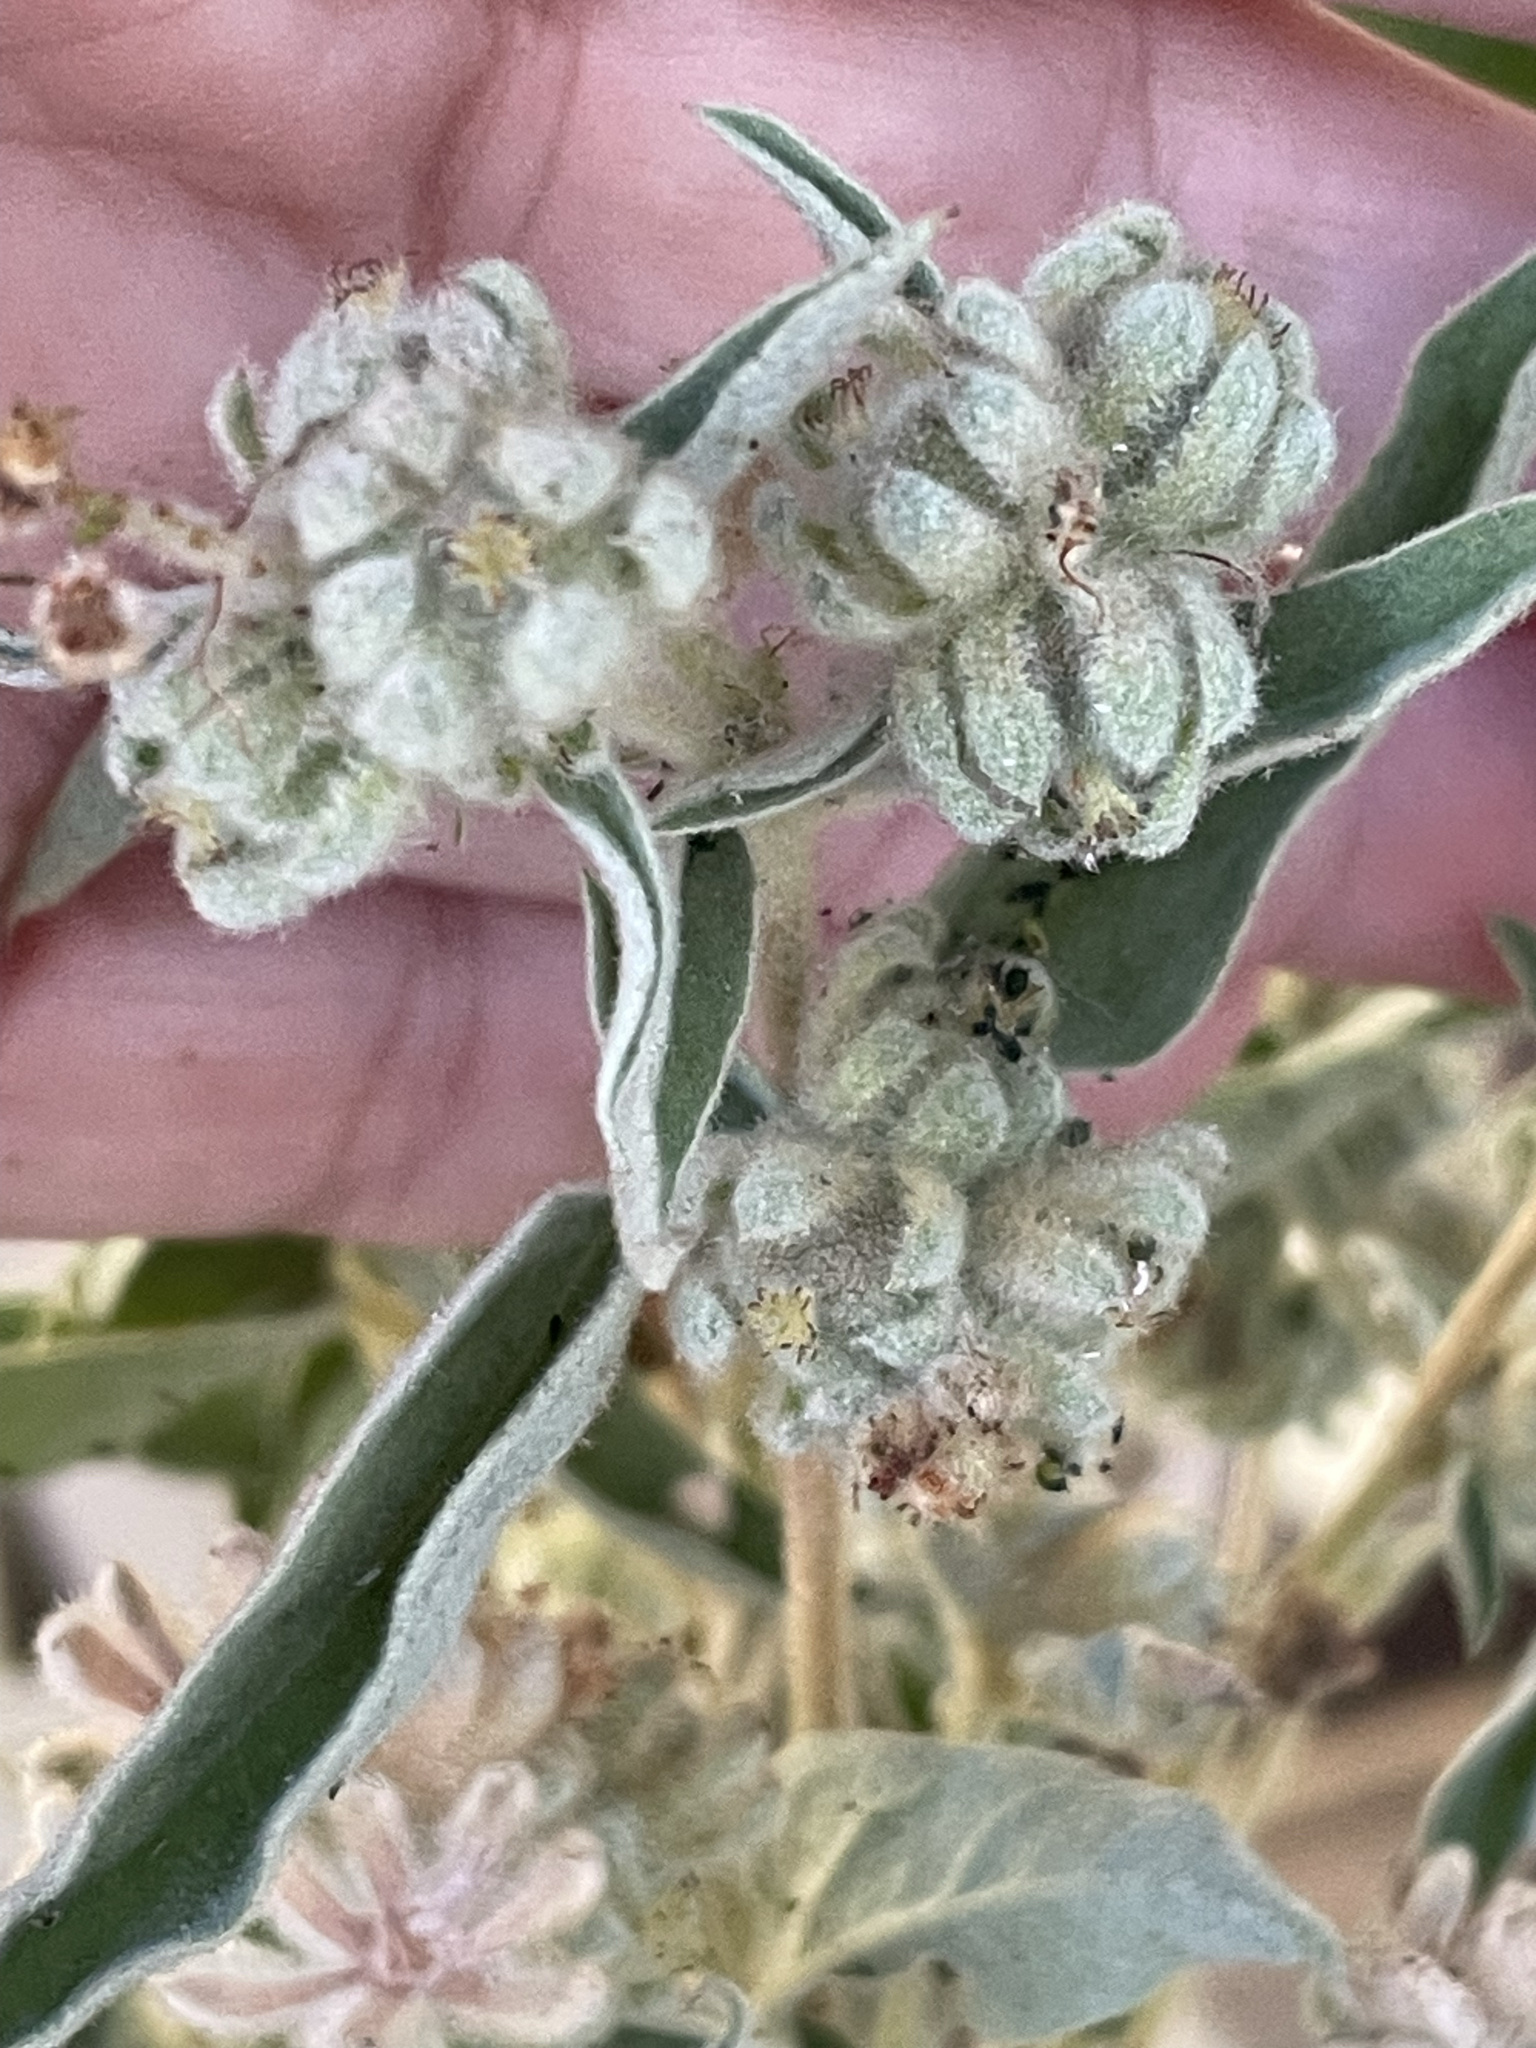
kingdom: Plantae
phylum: Tracheophyta
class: Magnoliopsida
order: Malpighiales
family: Euphorbiaceae
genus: Croton
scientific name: Croton lindheimeri
